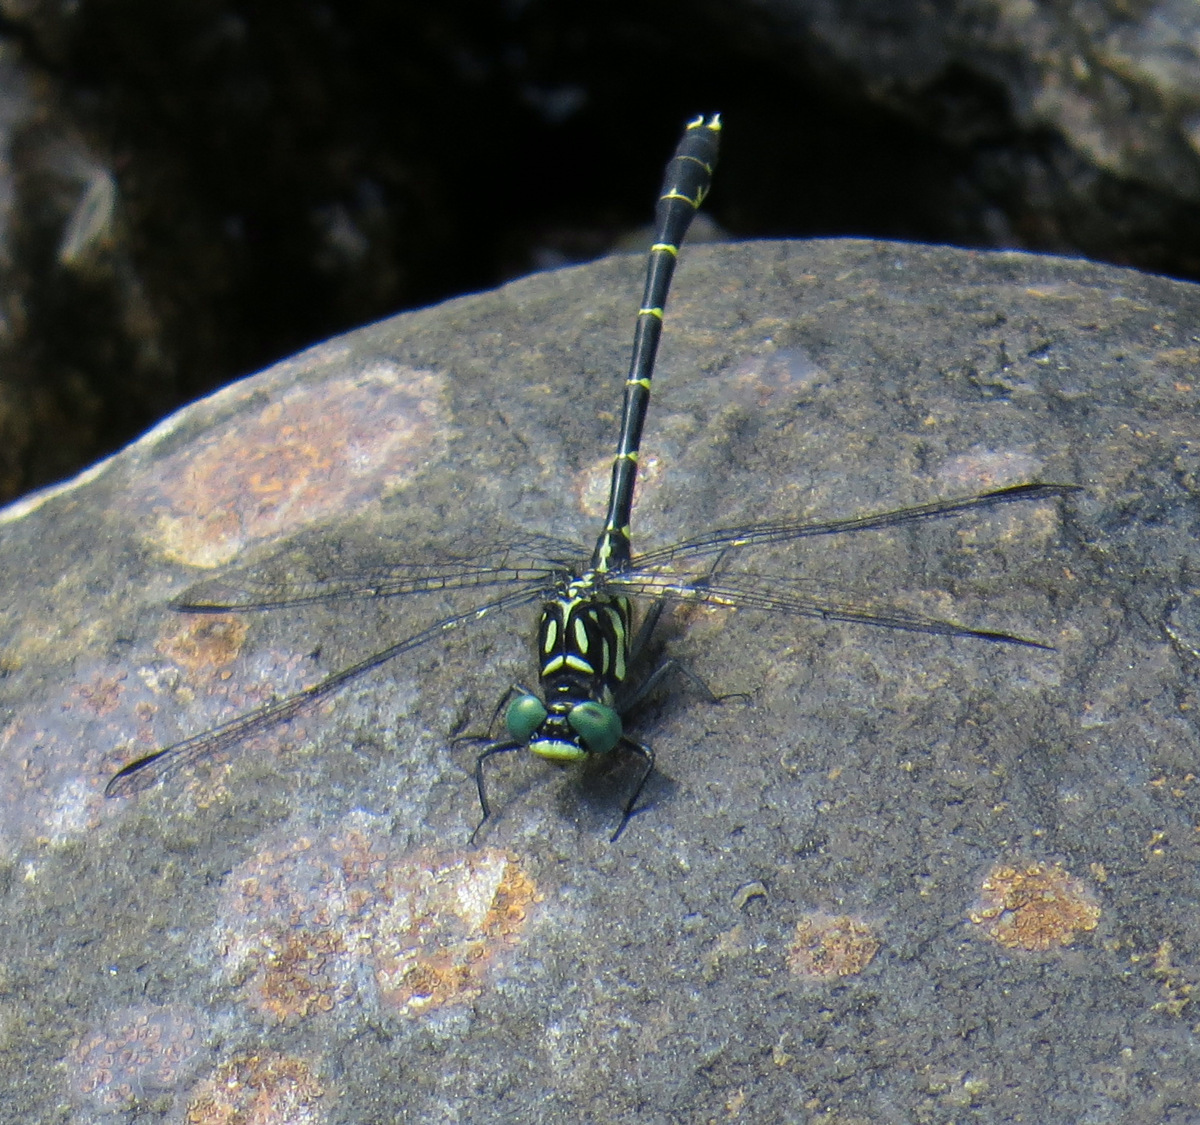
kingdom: Animalia
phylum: Arthropoda
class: Insecta
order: Odonata
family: Gomphidae
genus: Stylogomphus
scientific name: Stylogomphus albistylus
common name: Eastern least clubtail
